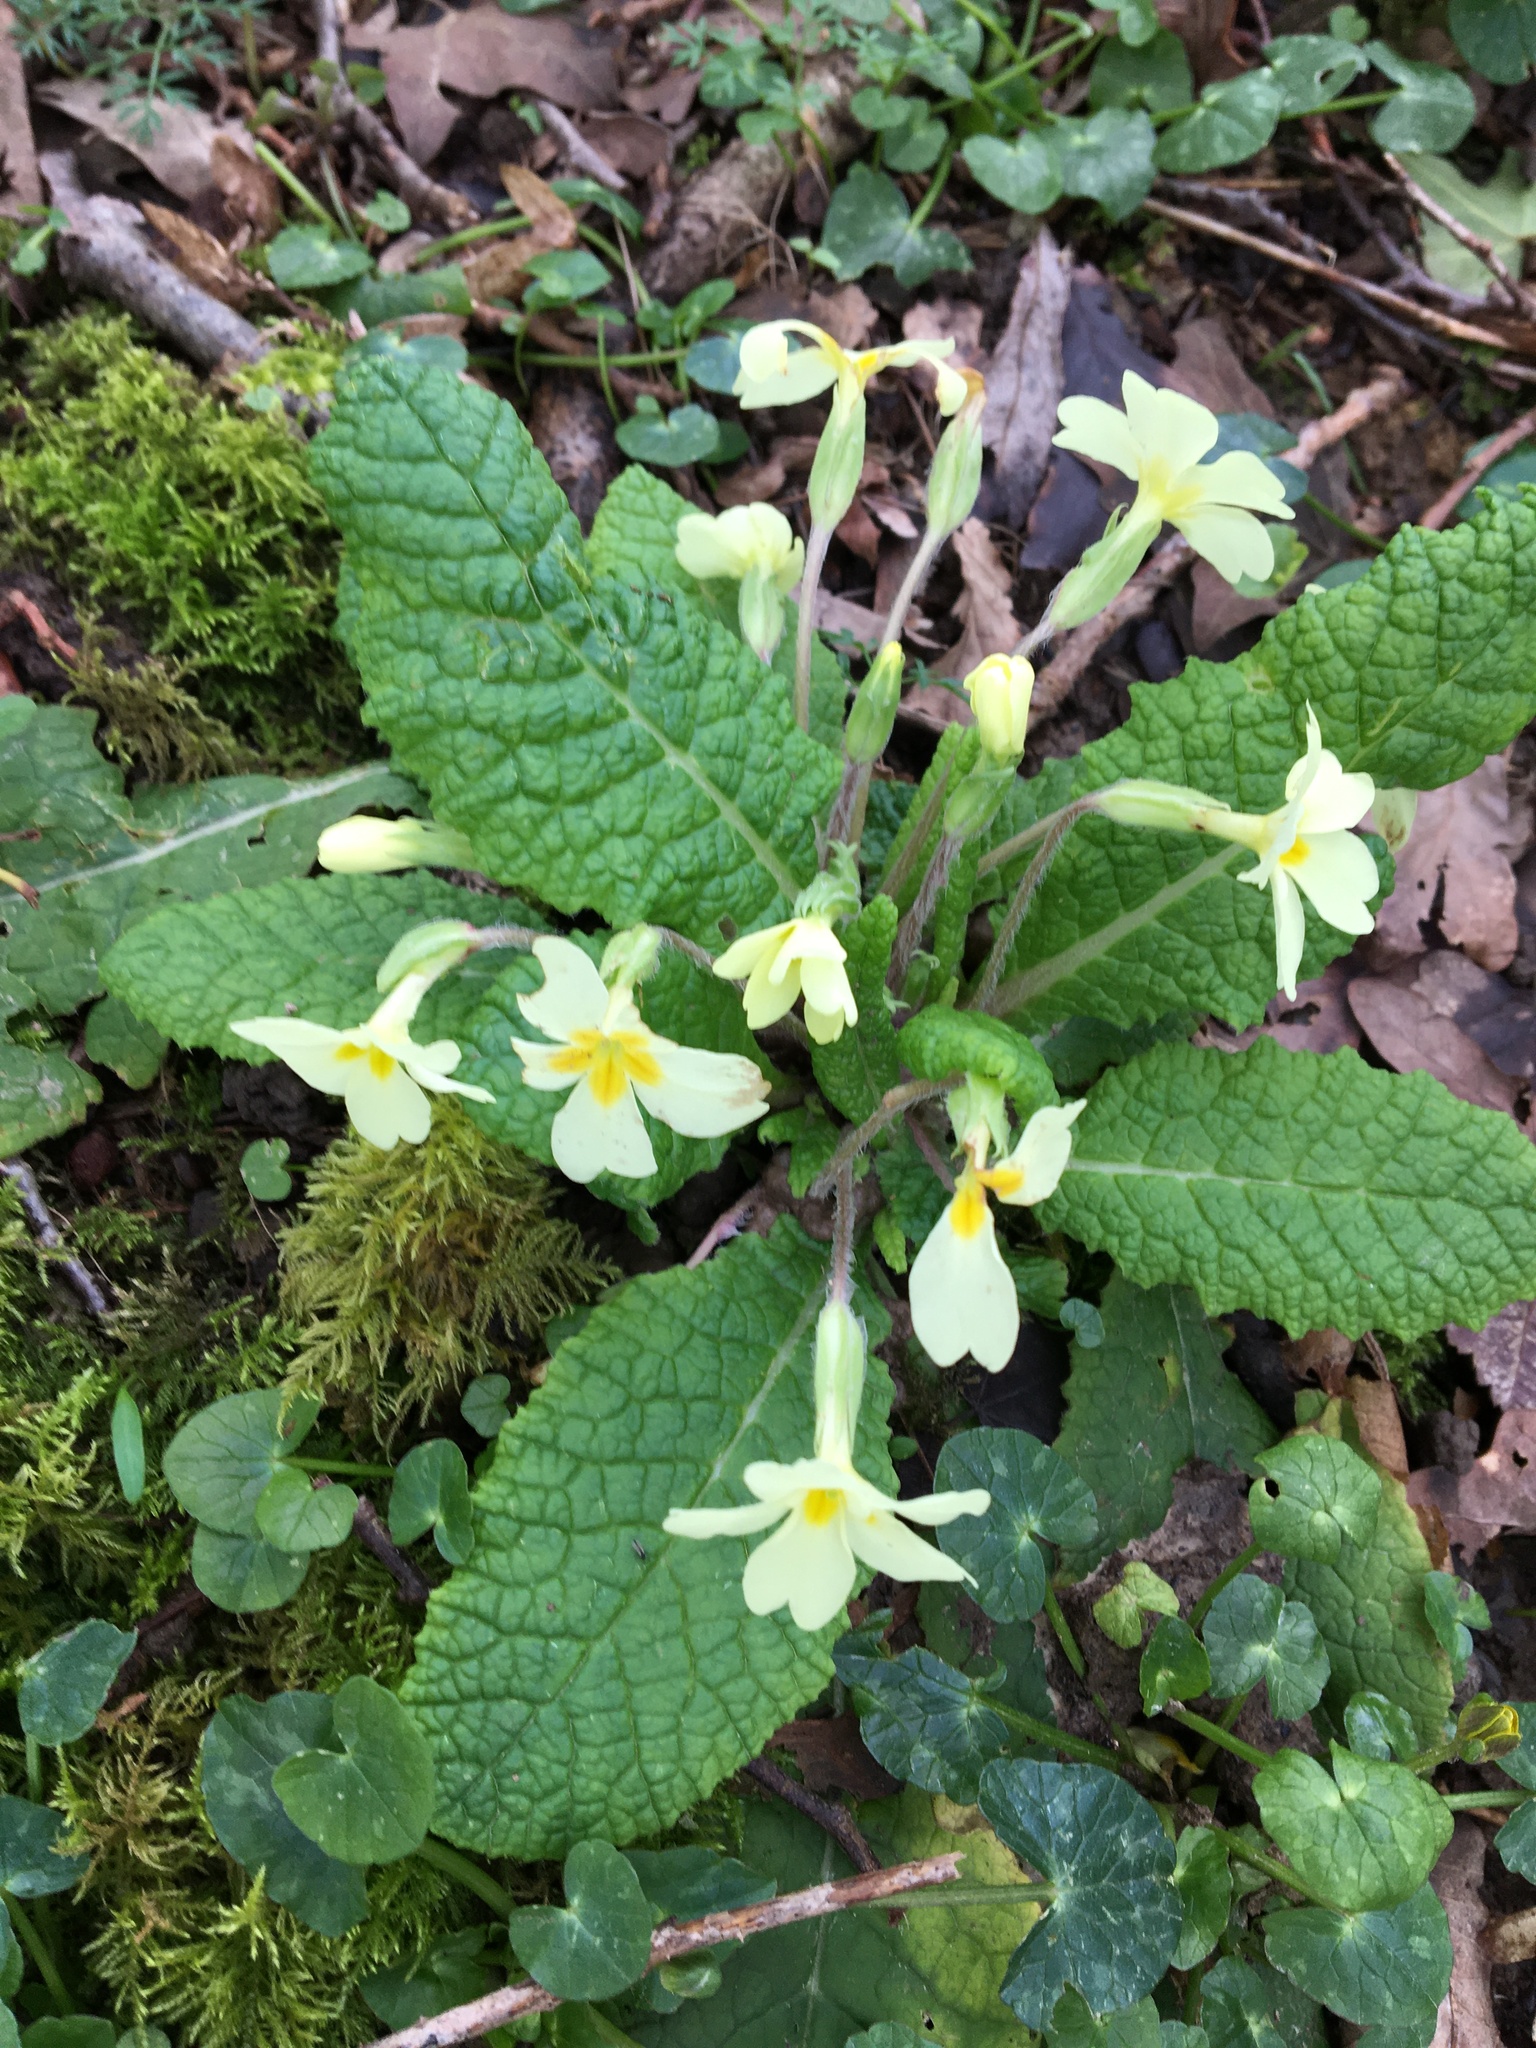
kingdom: Plantae
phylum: Tracheophyta
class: Magnoliopsida
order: Ericales
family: Primulaceae
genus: Primula
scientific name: Primula vulgaris
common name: Primrose
